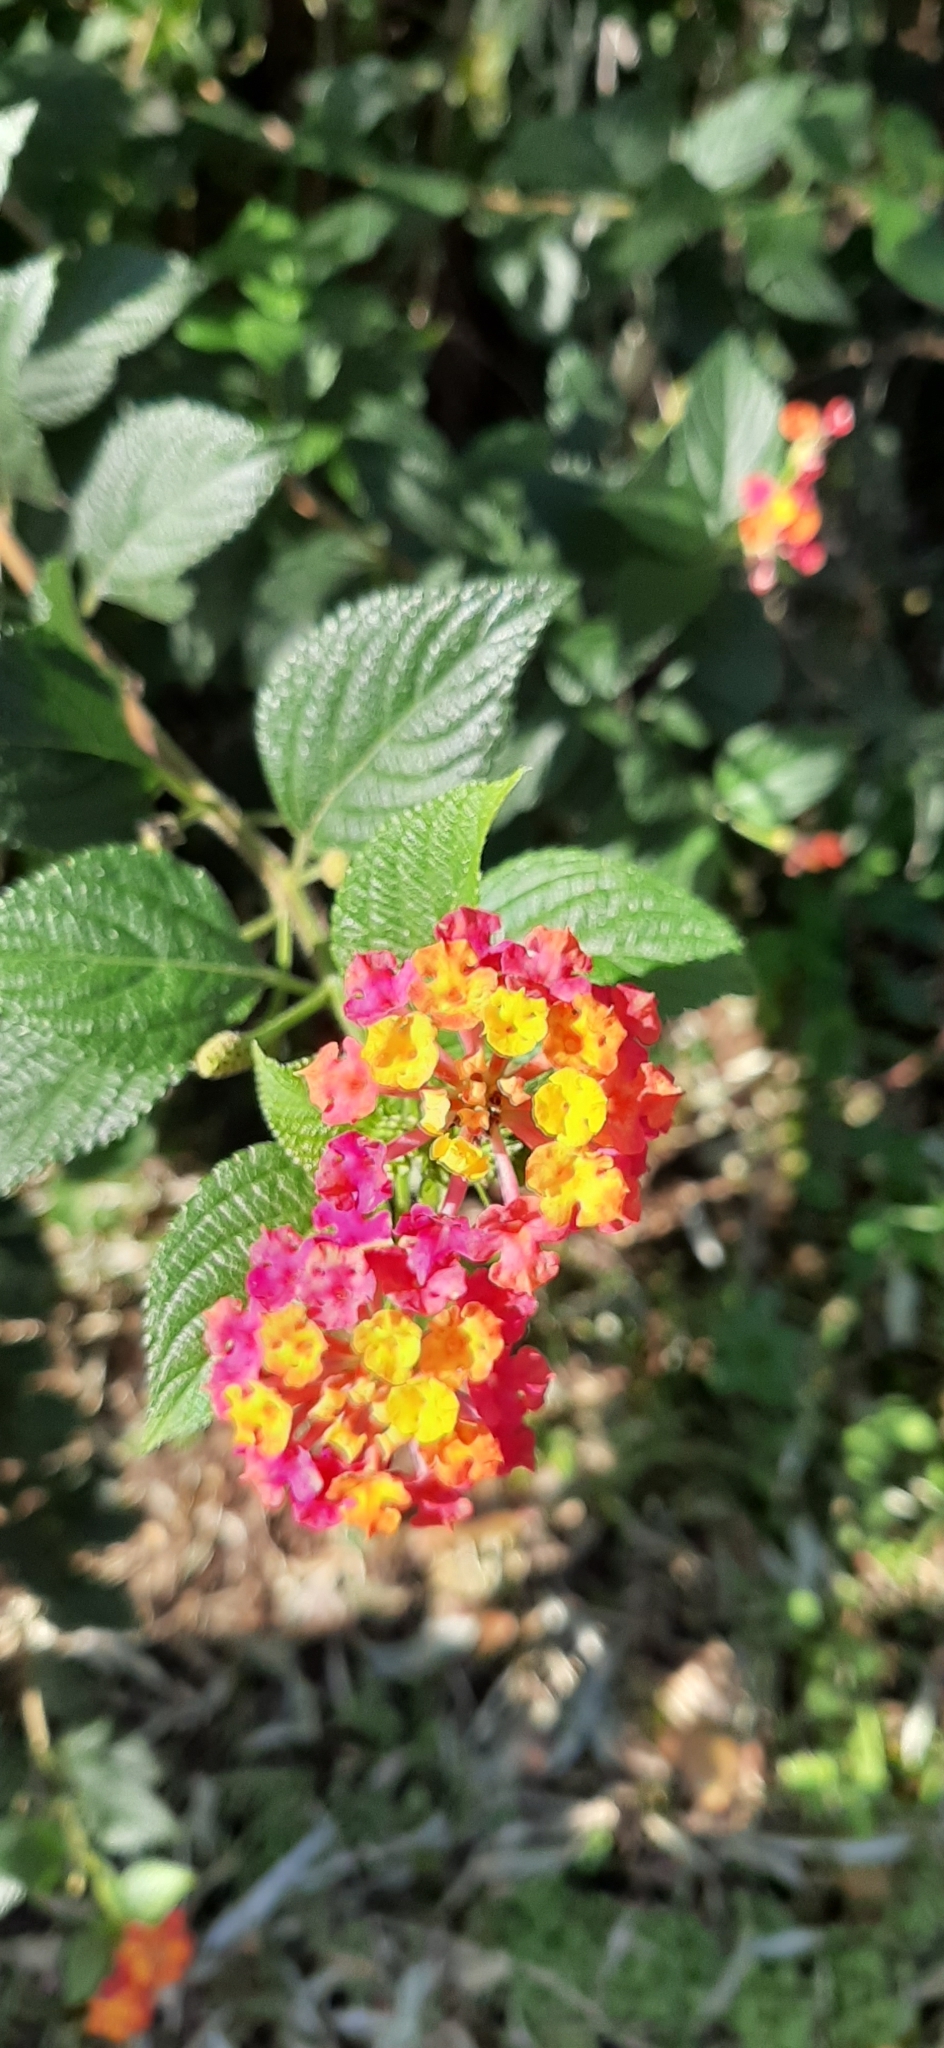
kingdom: Plantae
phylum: Tracheophyta
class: Magnoliopsida
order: Lamiales
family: Verbenaceae
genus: Lantana
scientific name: Lantana camara
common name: Lantana
